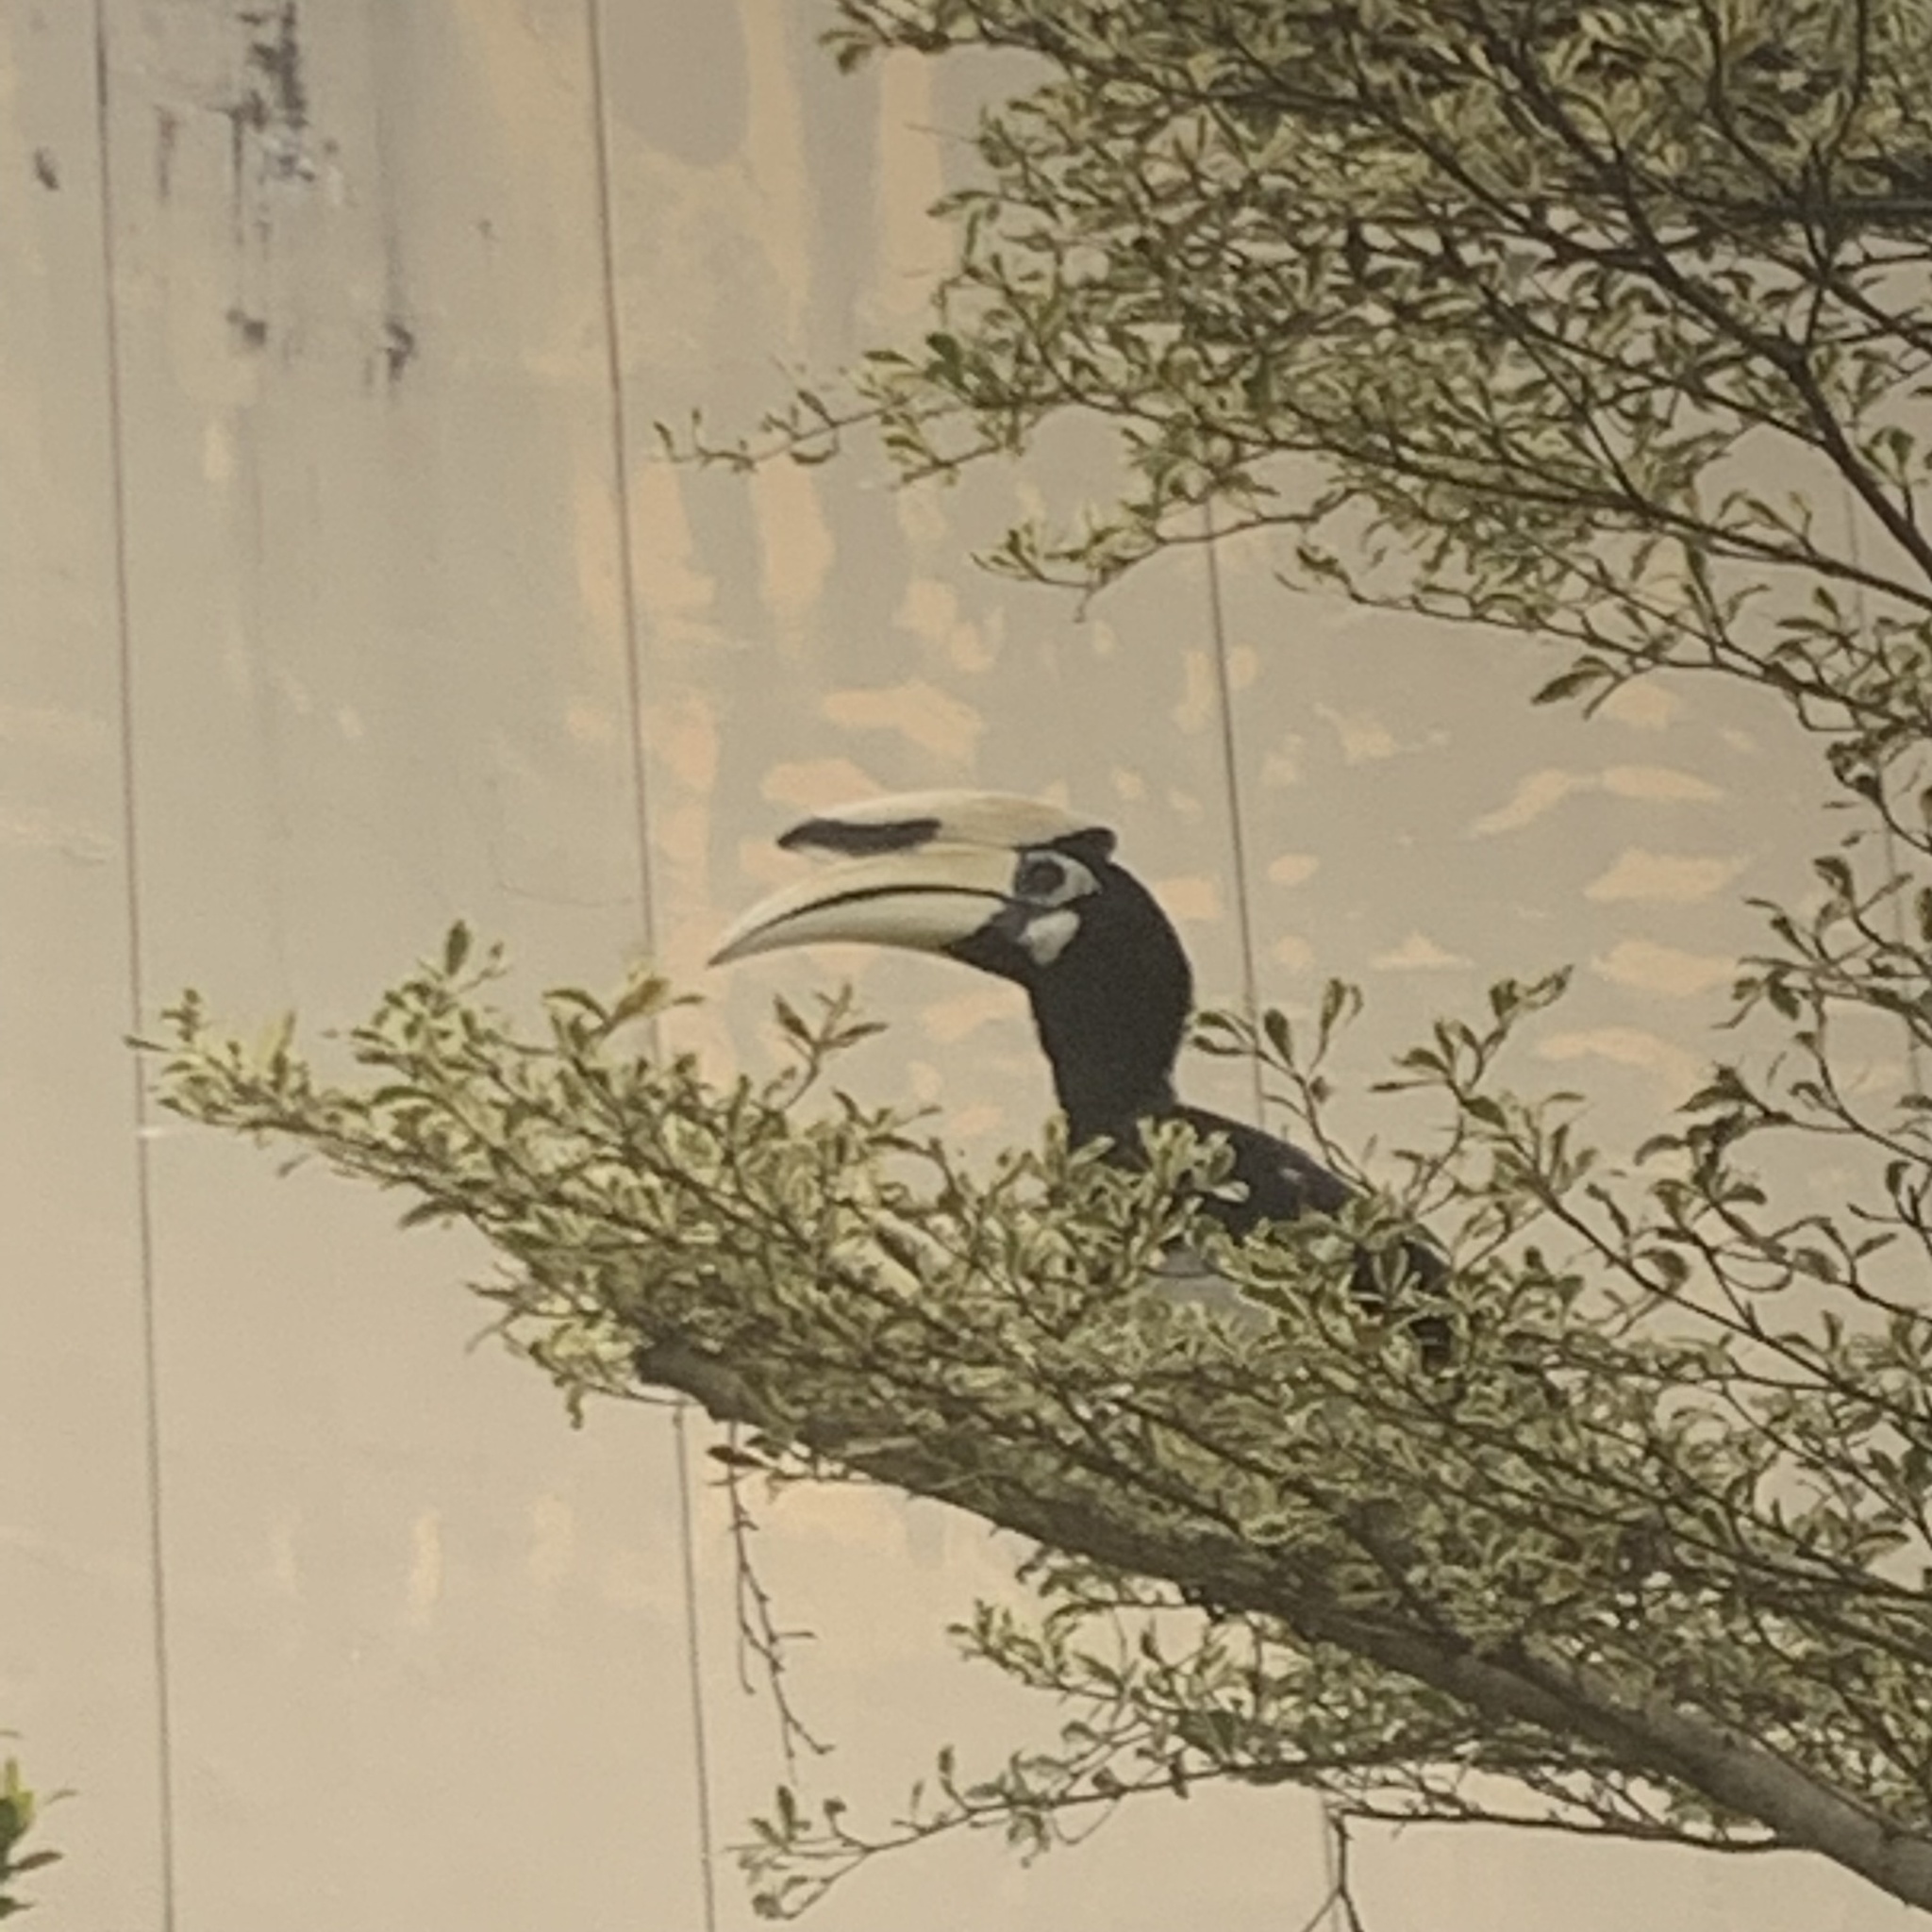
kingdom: Animalia
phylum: Chordata
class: Aves
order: Bucerotiformes
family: Bucerotidae
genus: Anthracoceros
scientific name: Anthracoceros albirostris
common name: Oriental pied-hornbill
